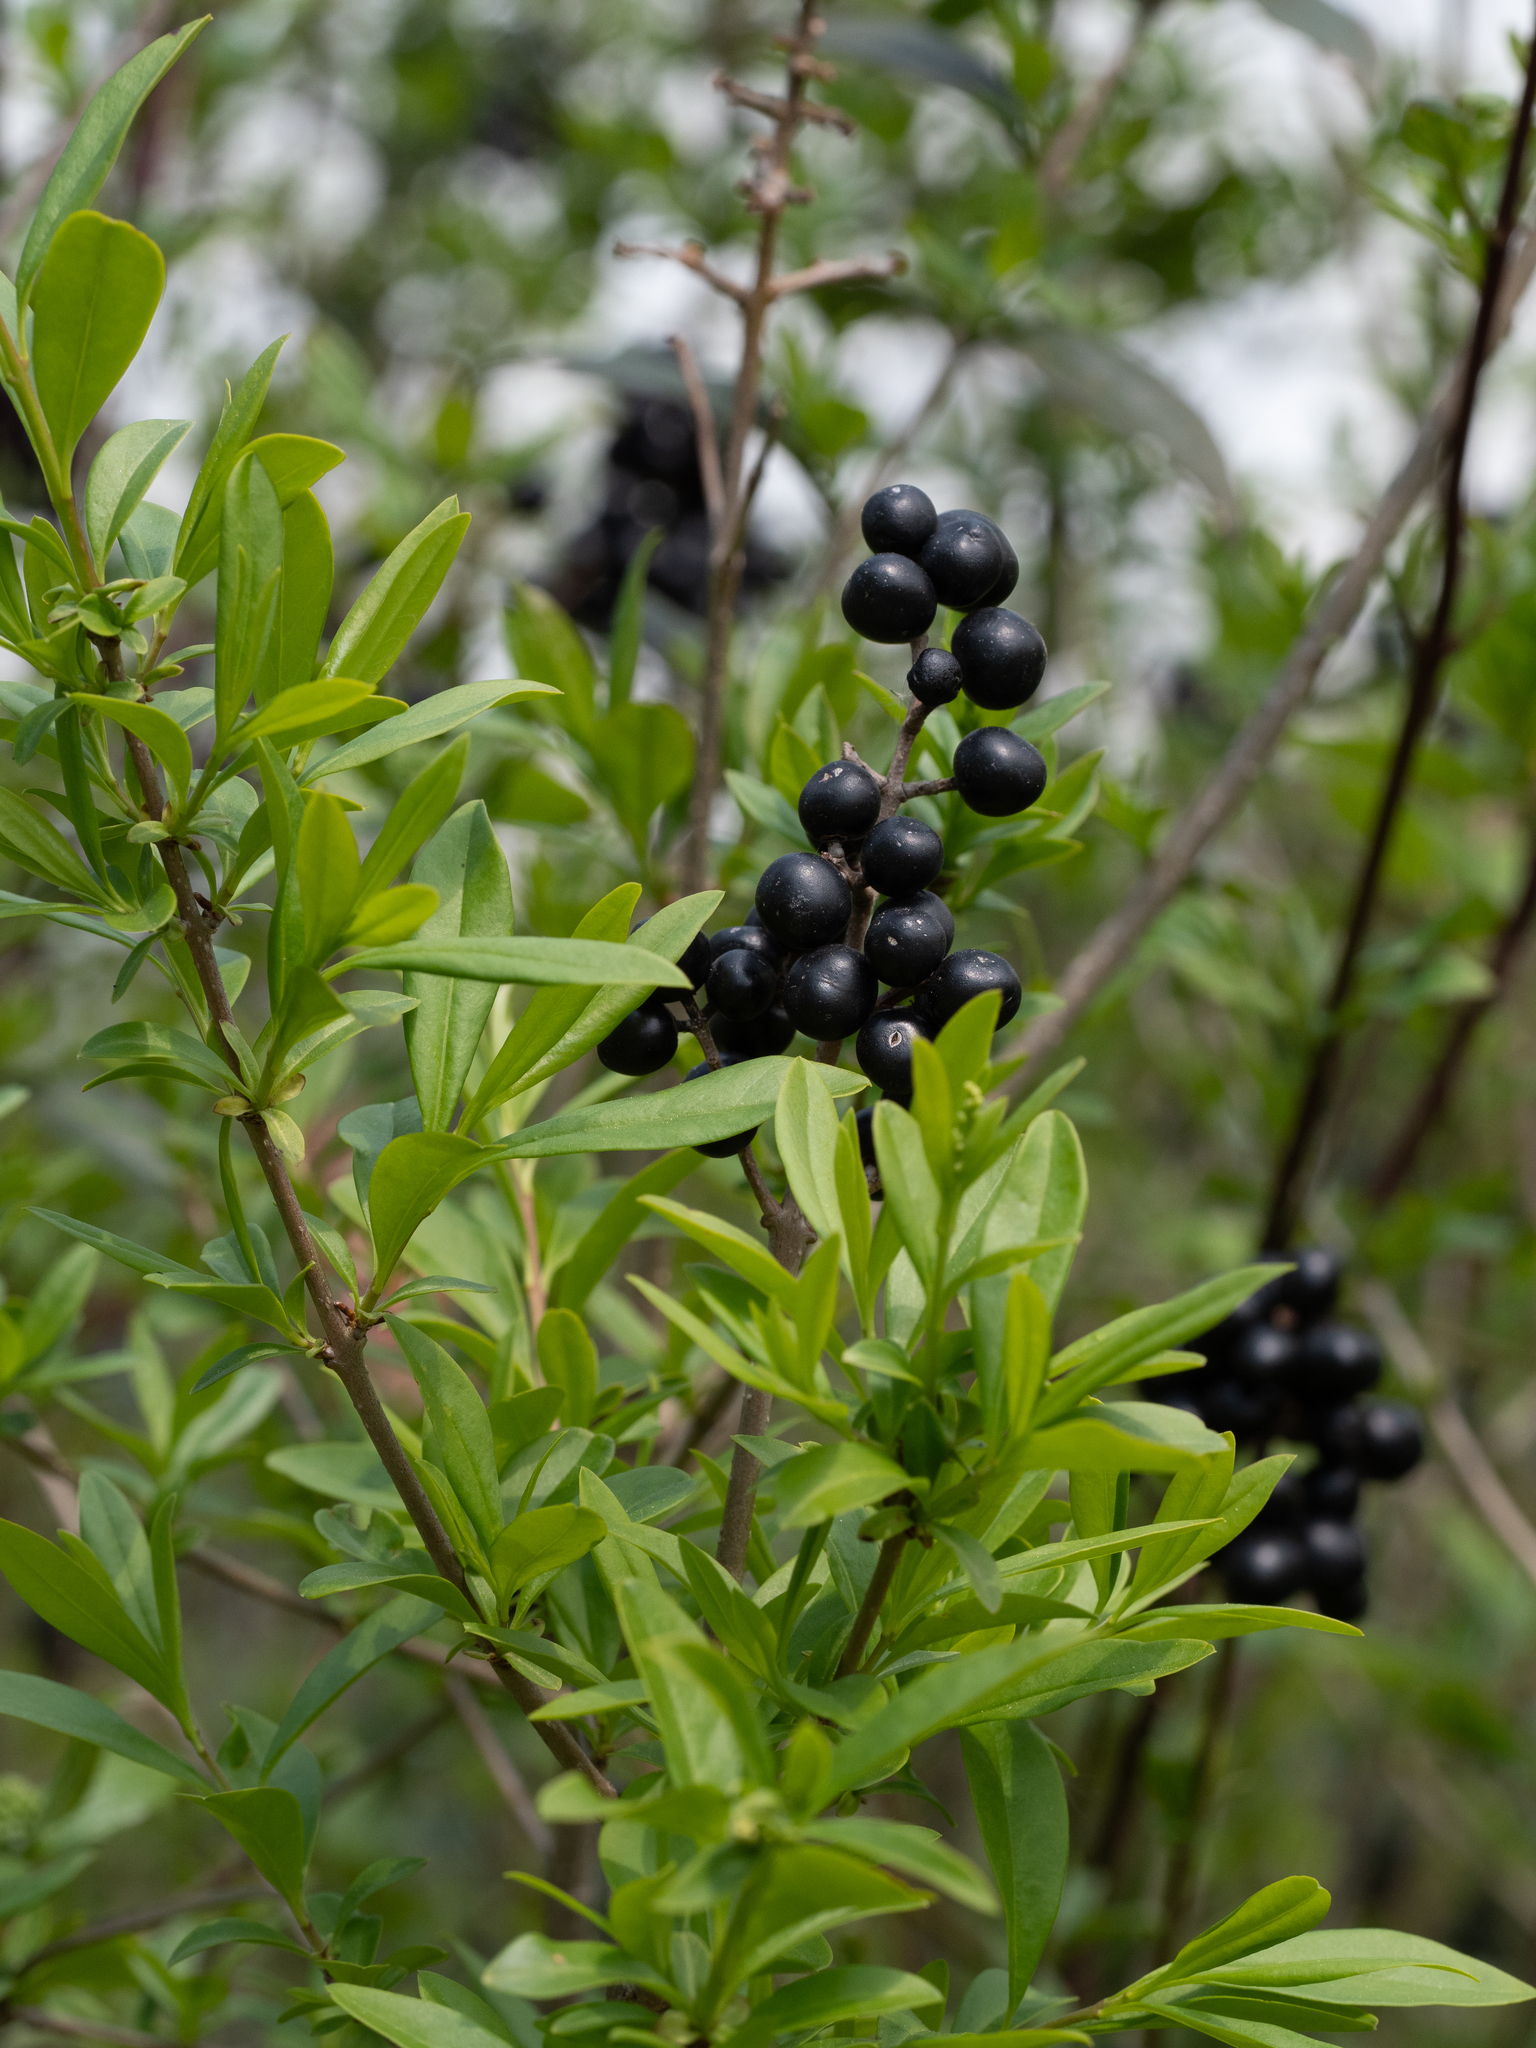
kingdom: Plantae
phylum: Tracheophyta
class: Magnoliopsida
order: Lamiales
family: Oleaceae
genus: Ligustrum
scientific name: Ligustrum vulgare
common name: Wild privet
